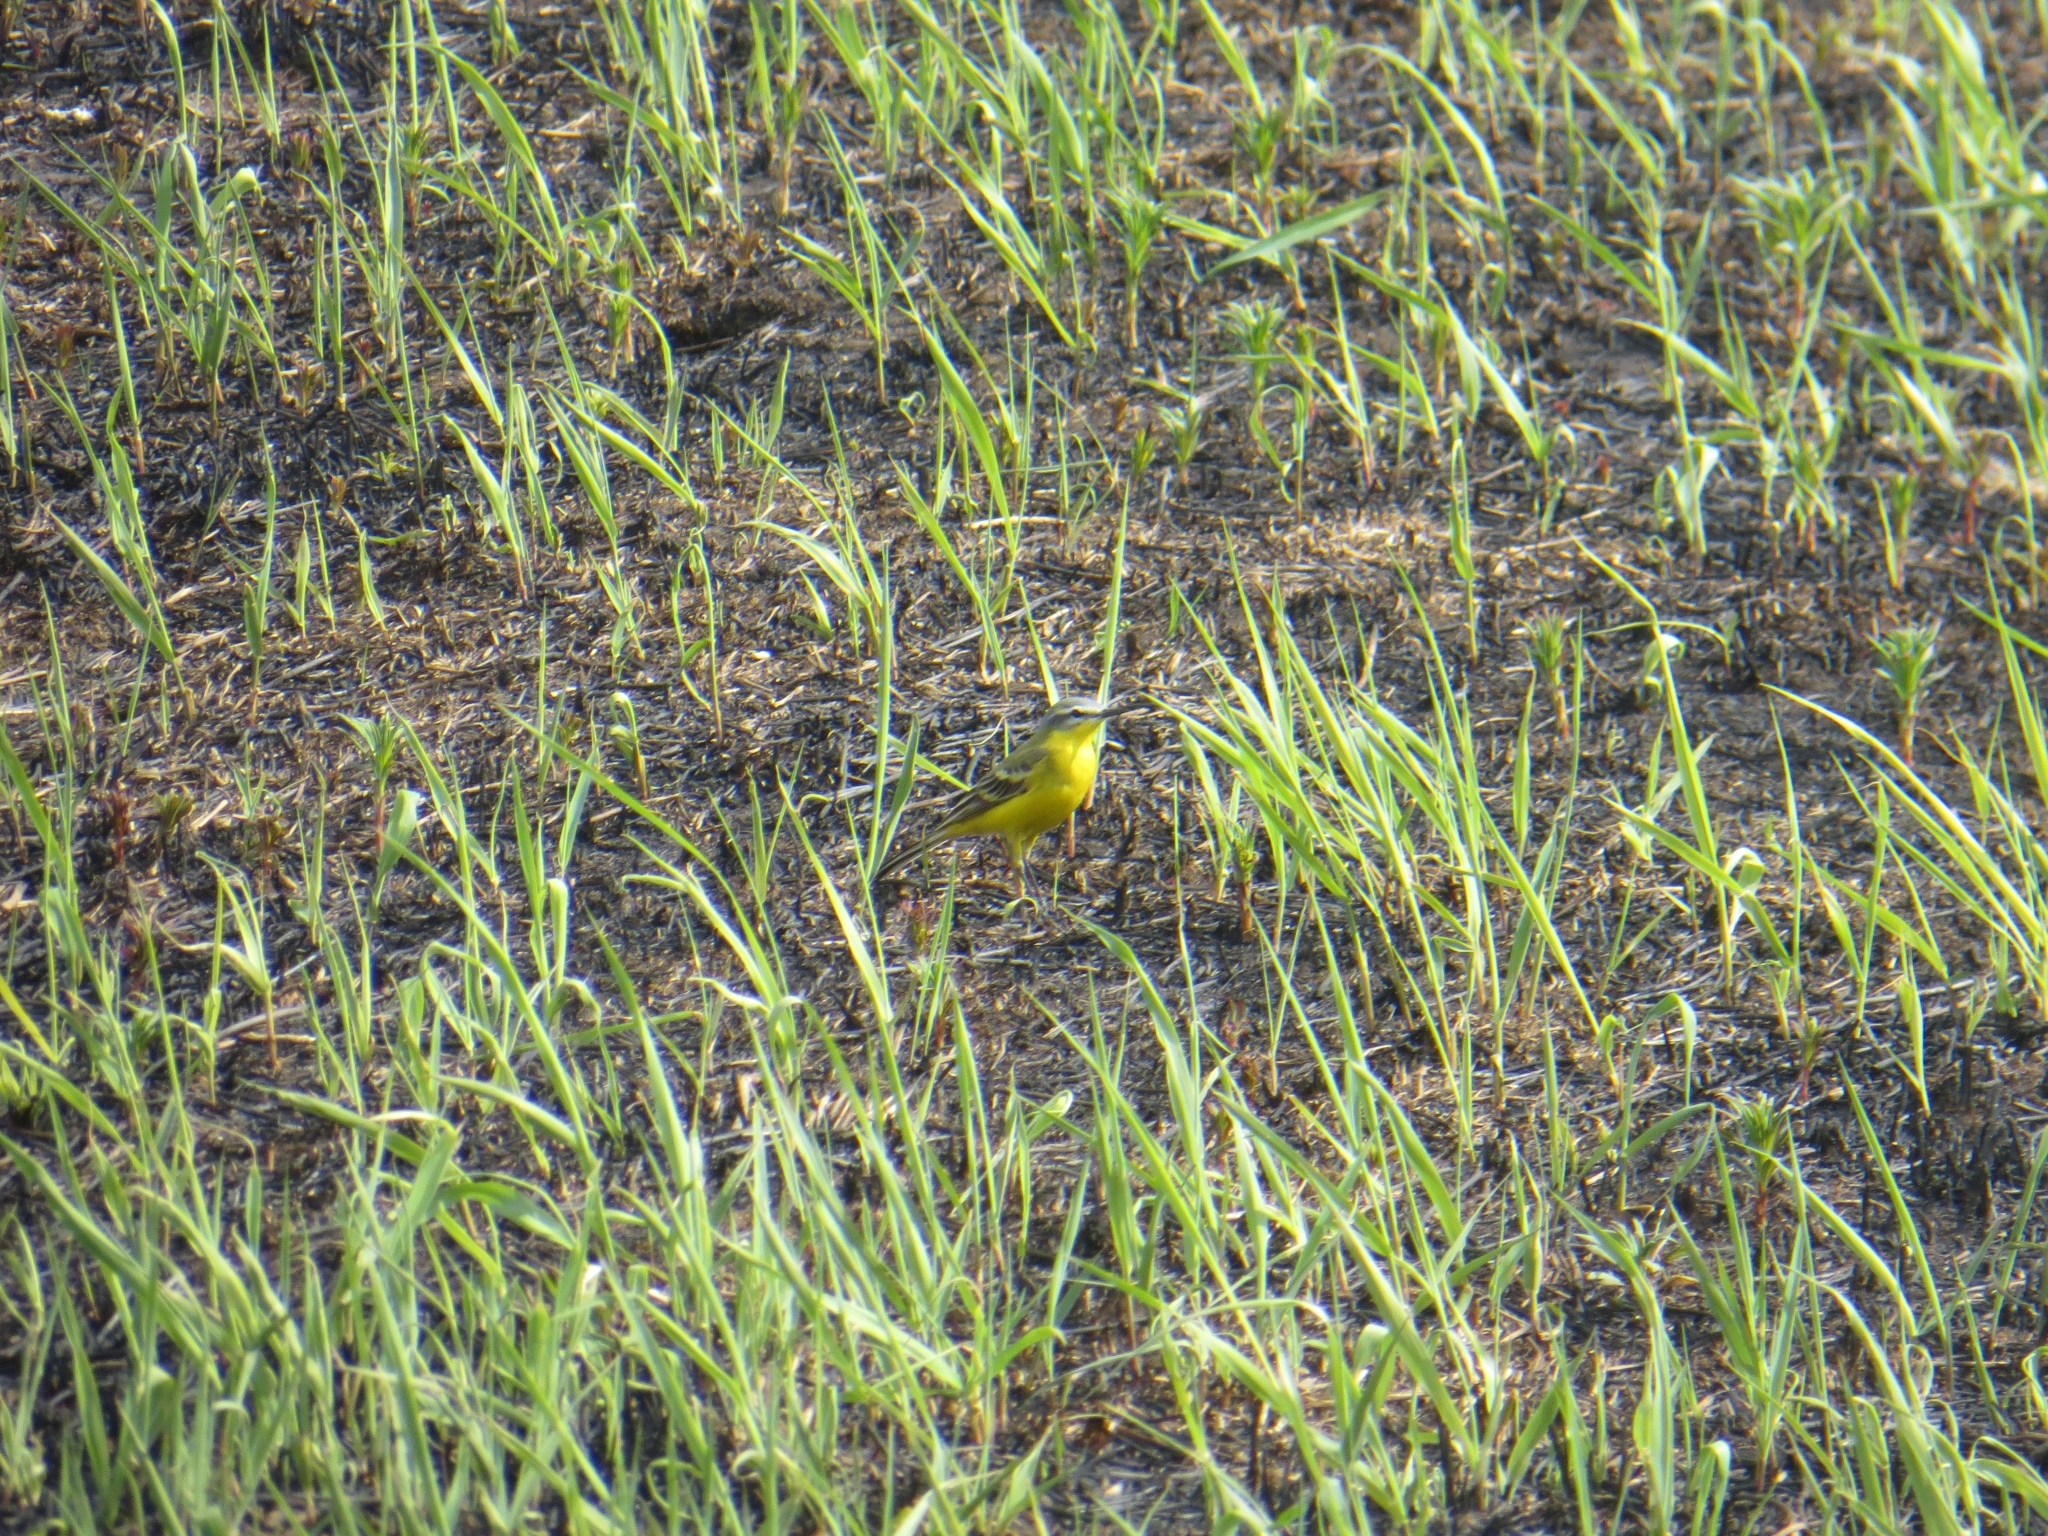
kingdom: Animalia
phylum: Chordata
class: Aves
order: Passeriformes
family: Motacillidae
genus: Motacilla
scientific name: Motacilla flava
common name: Western yellow wagtail
